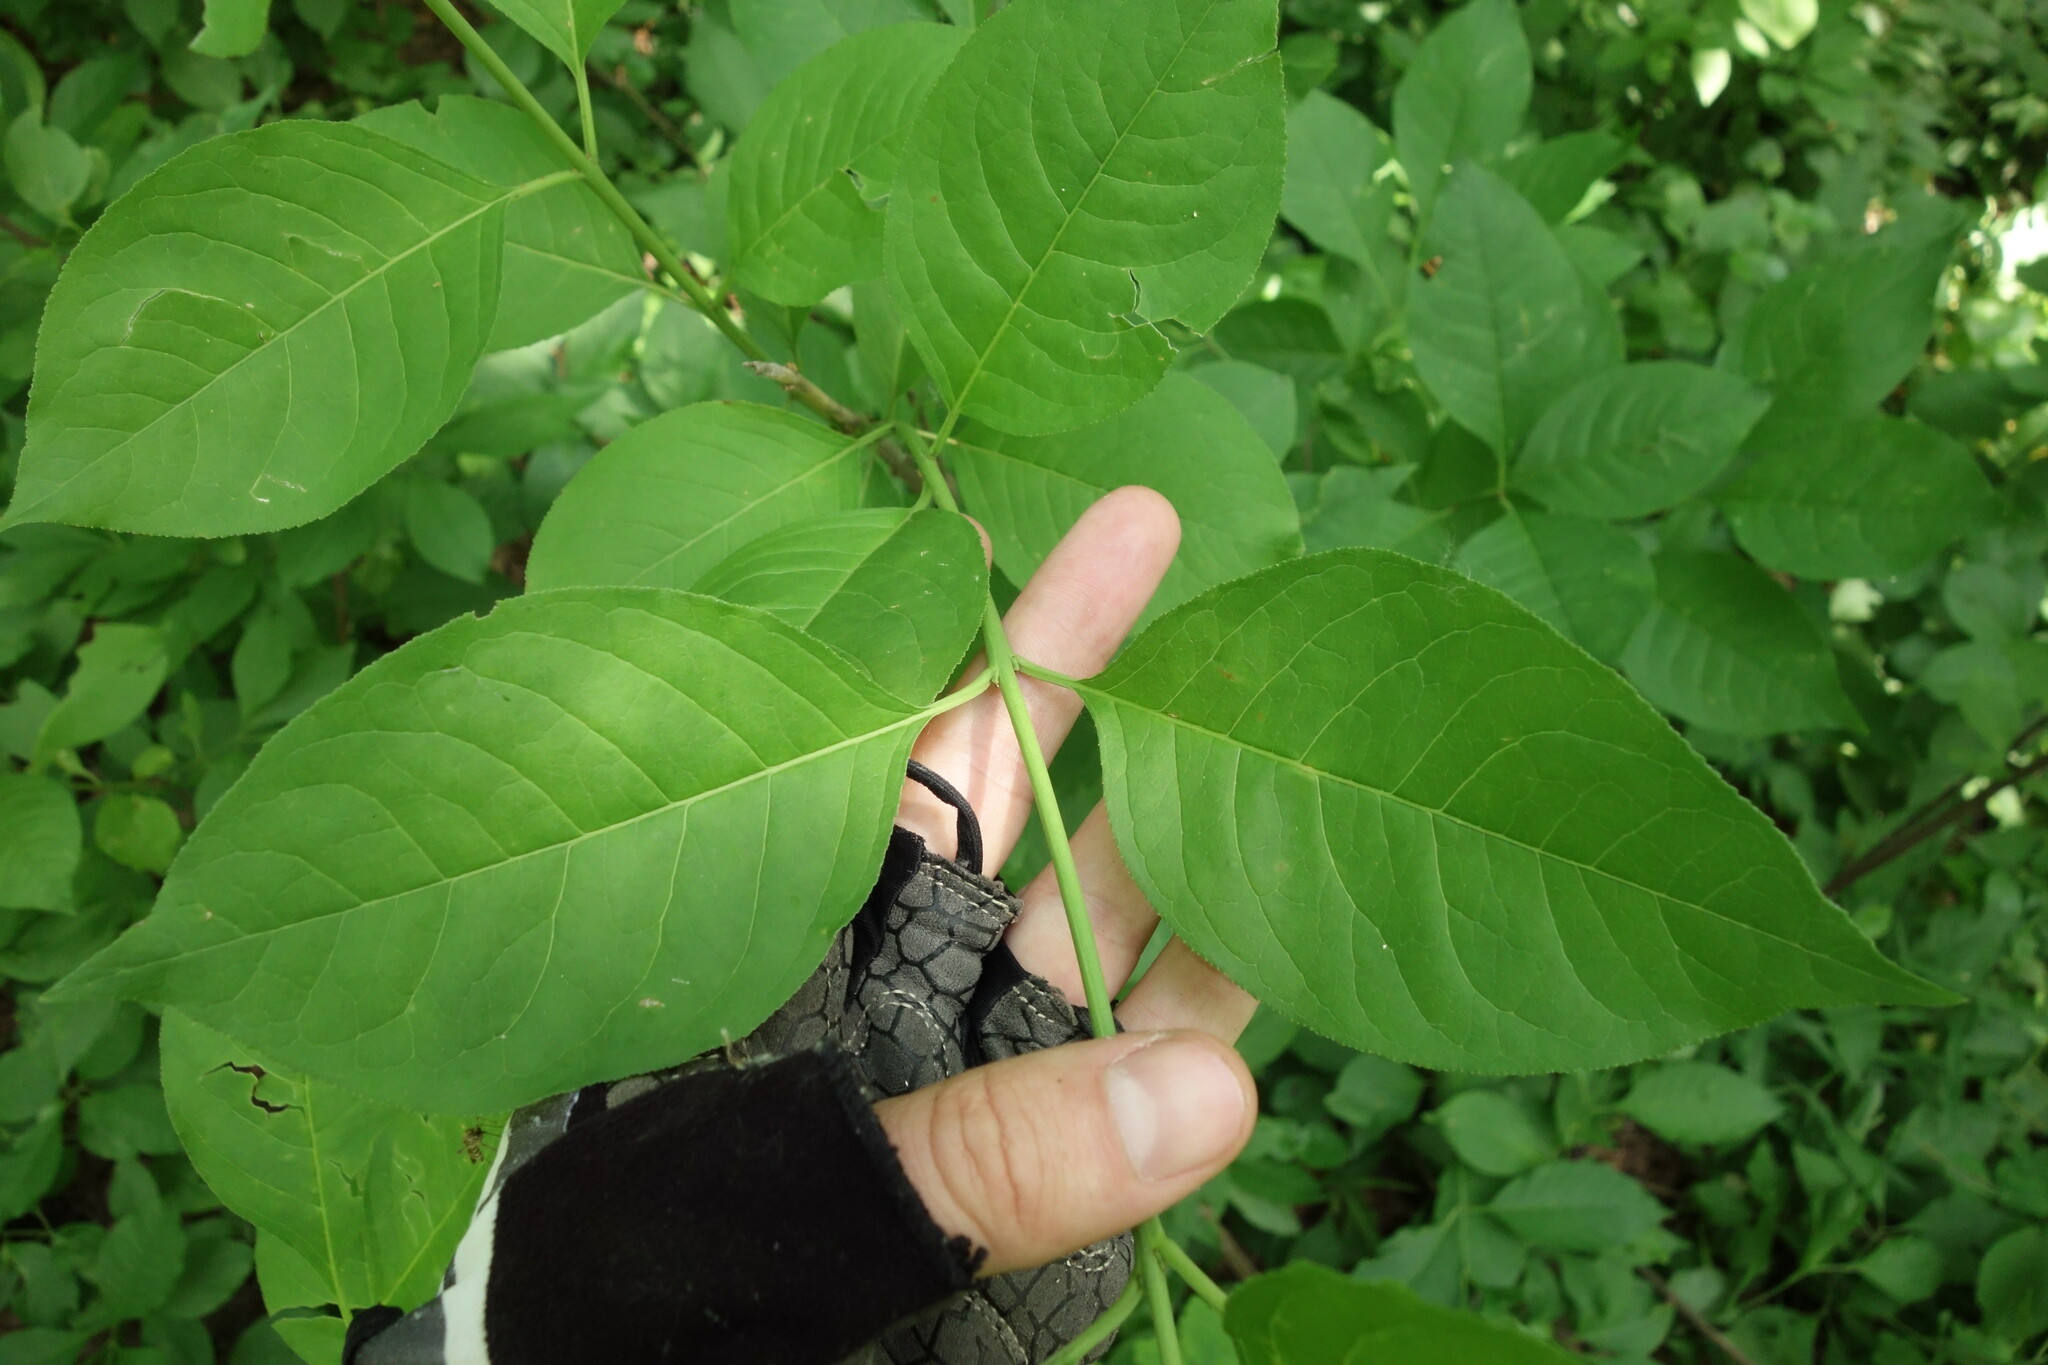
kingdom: Plantae
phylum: Tracheophyta
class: Magnoliopsida
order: Celastrales
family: Celastraceae
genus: Euonymus
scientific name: Euonymus europaeus
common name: Spindle
